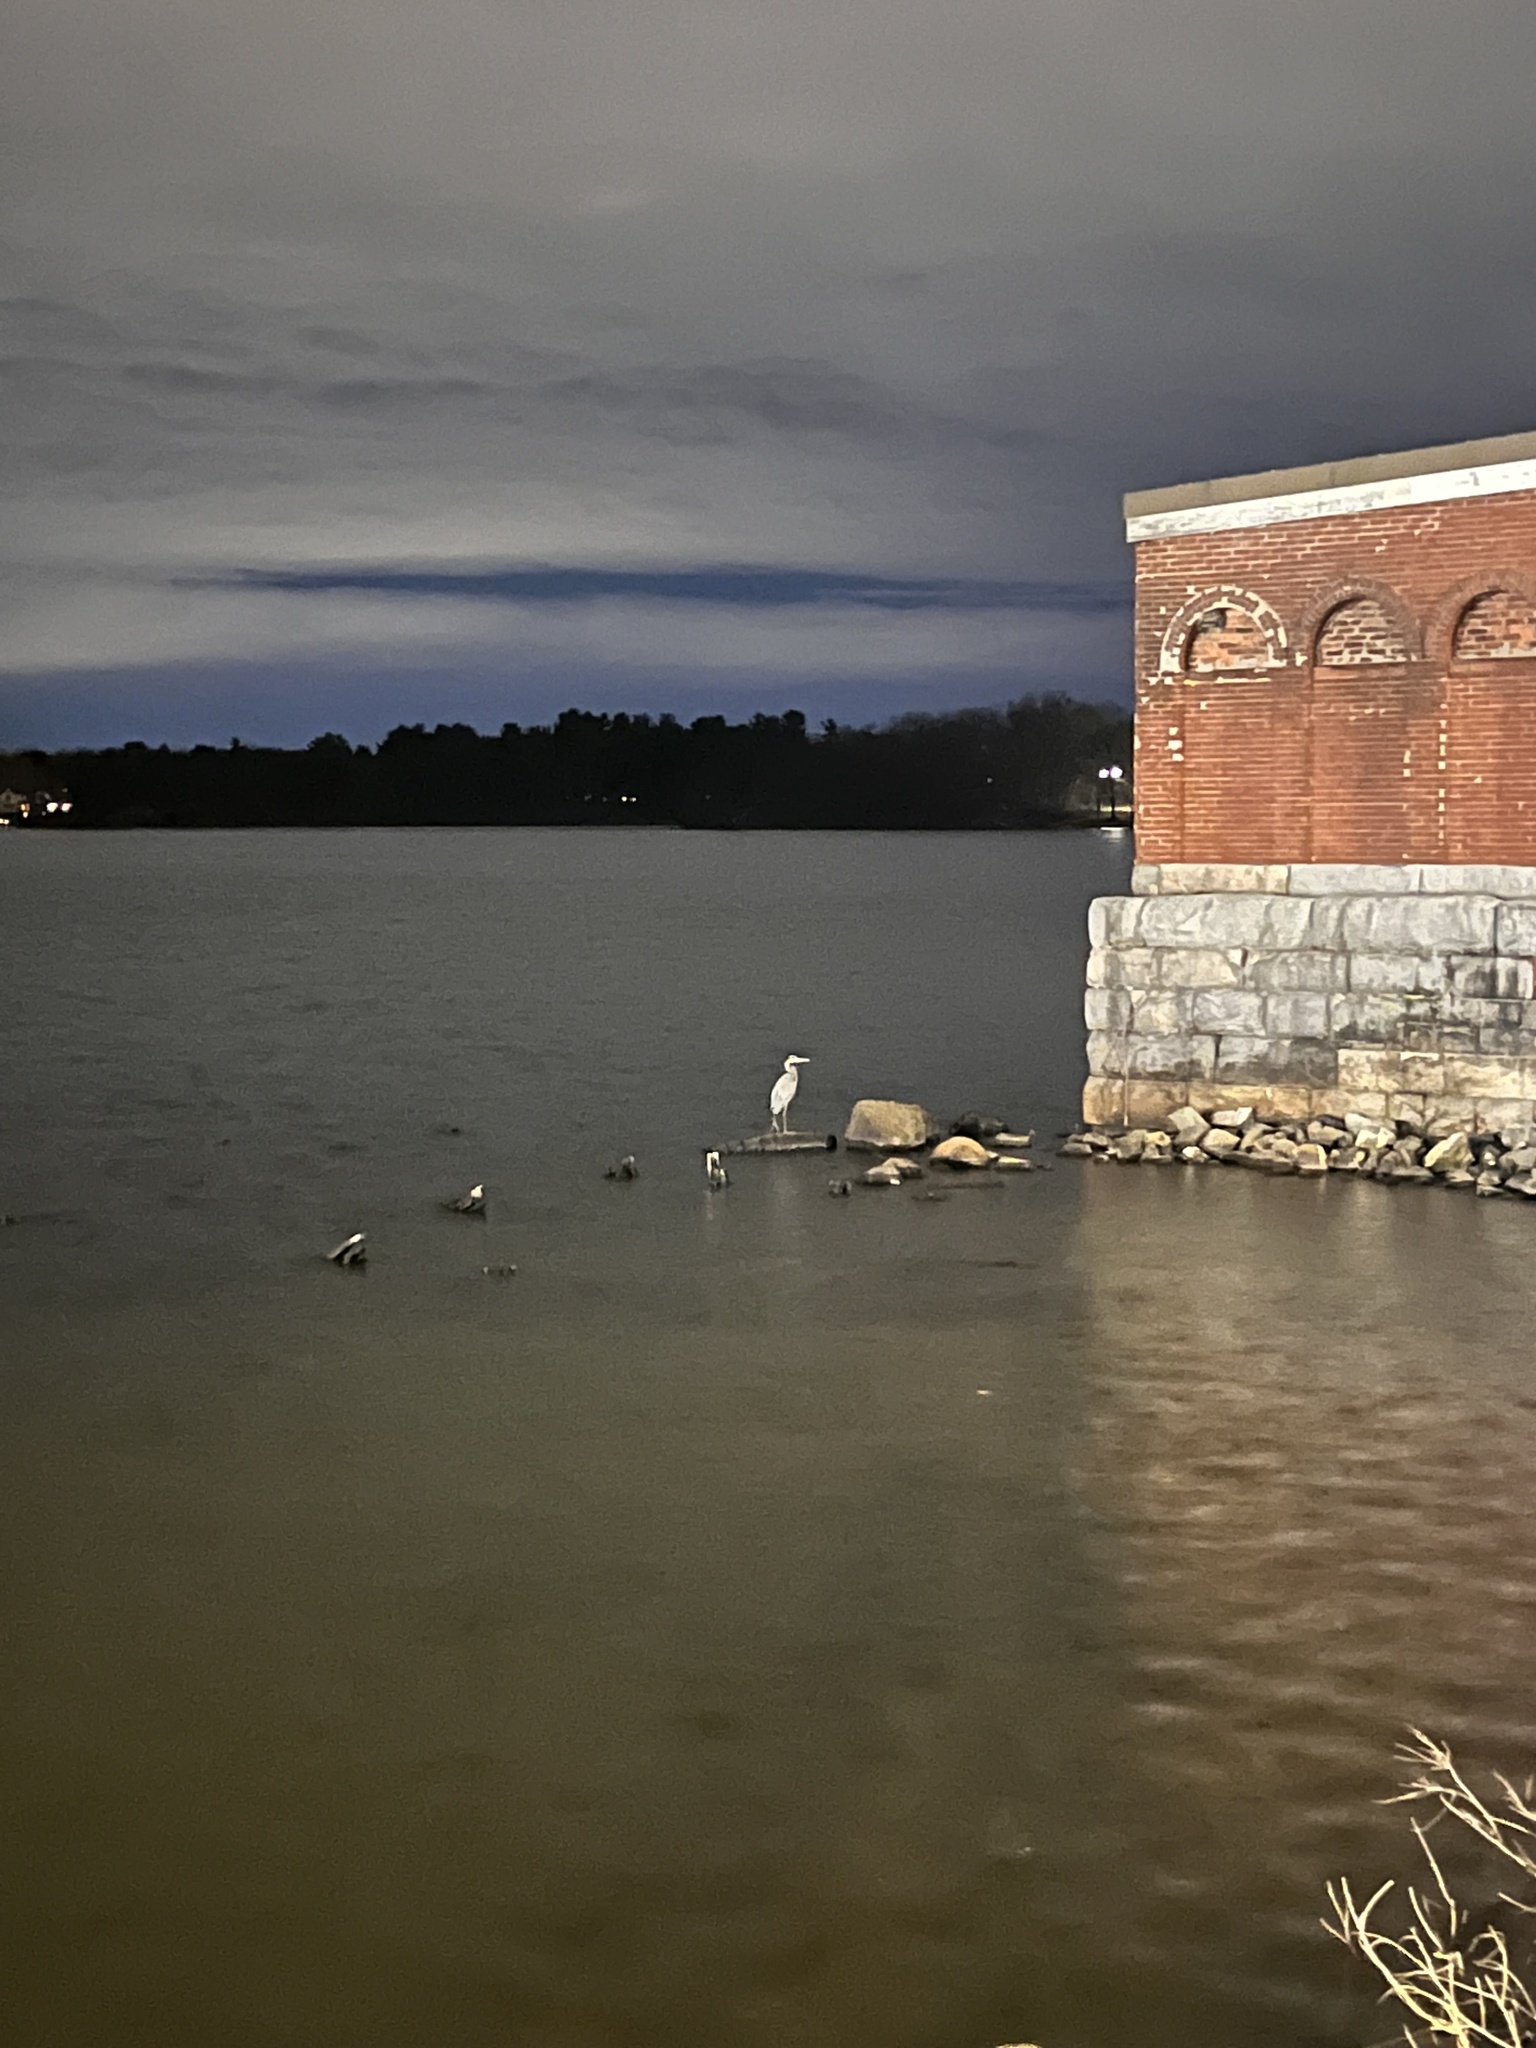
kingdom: Animalia
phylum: Chordata
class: Aves
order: Pelecaniformes
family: Ardeidae
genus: Ardea
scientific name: Ardea herodias
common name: Great blue heron
